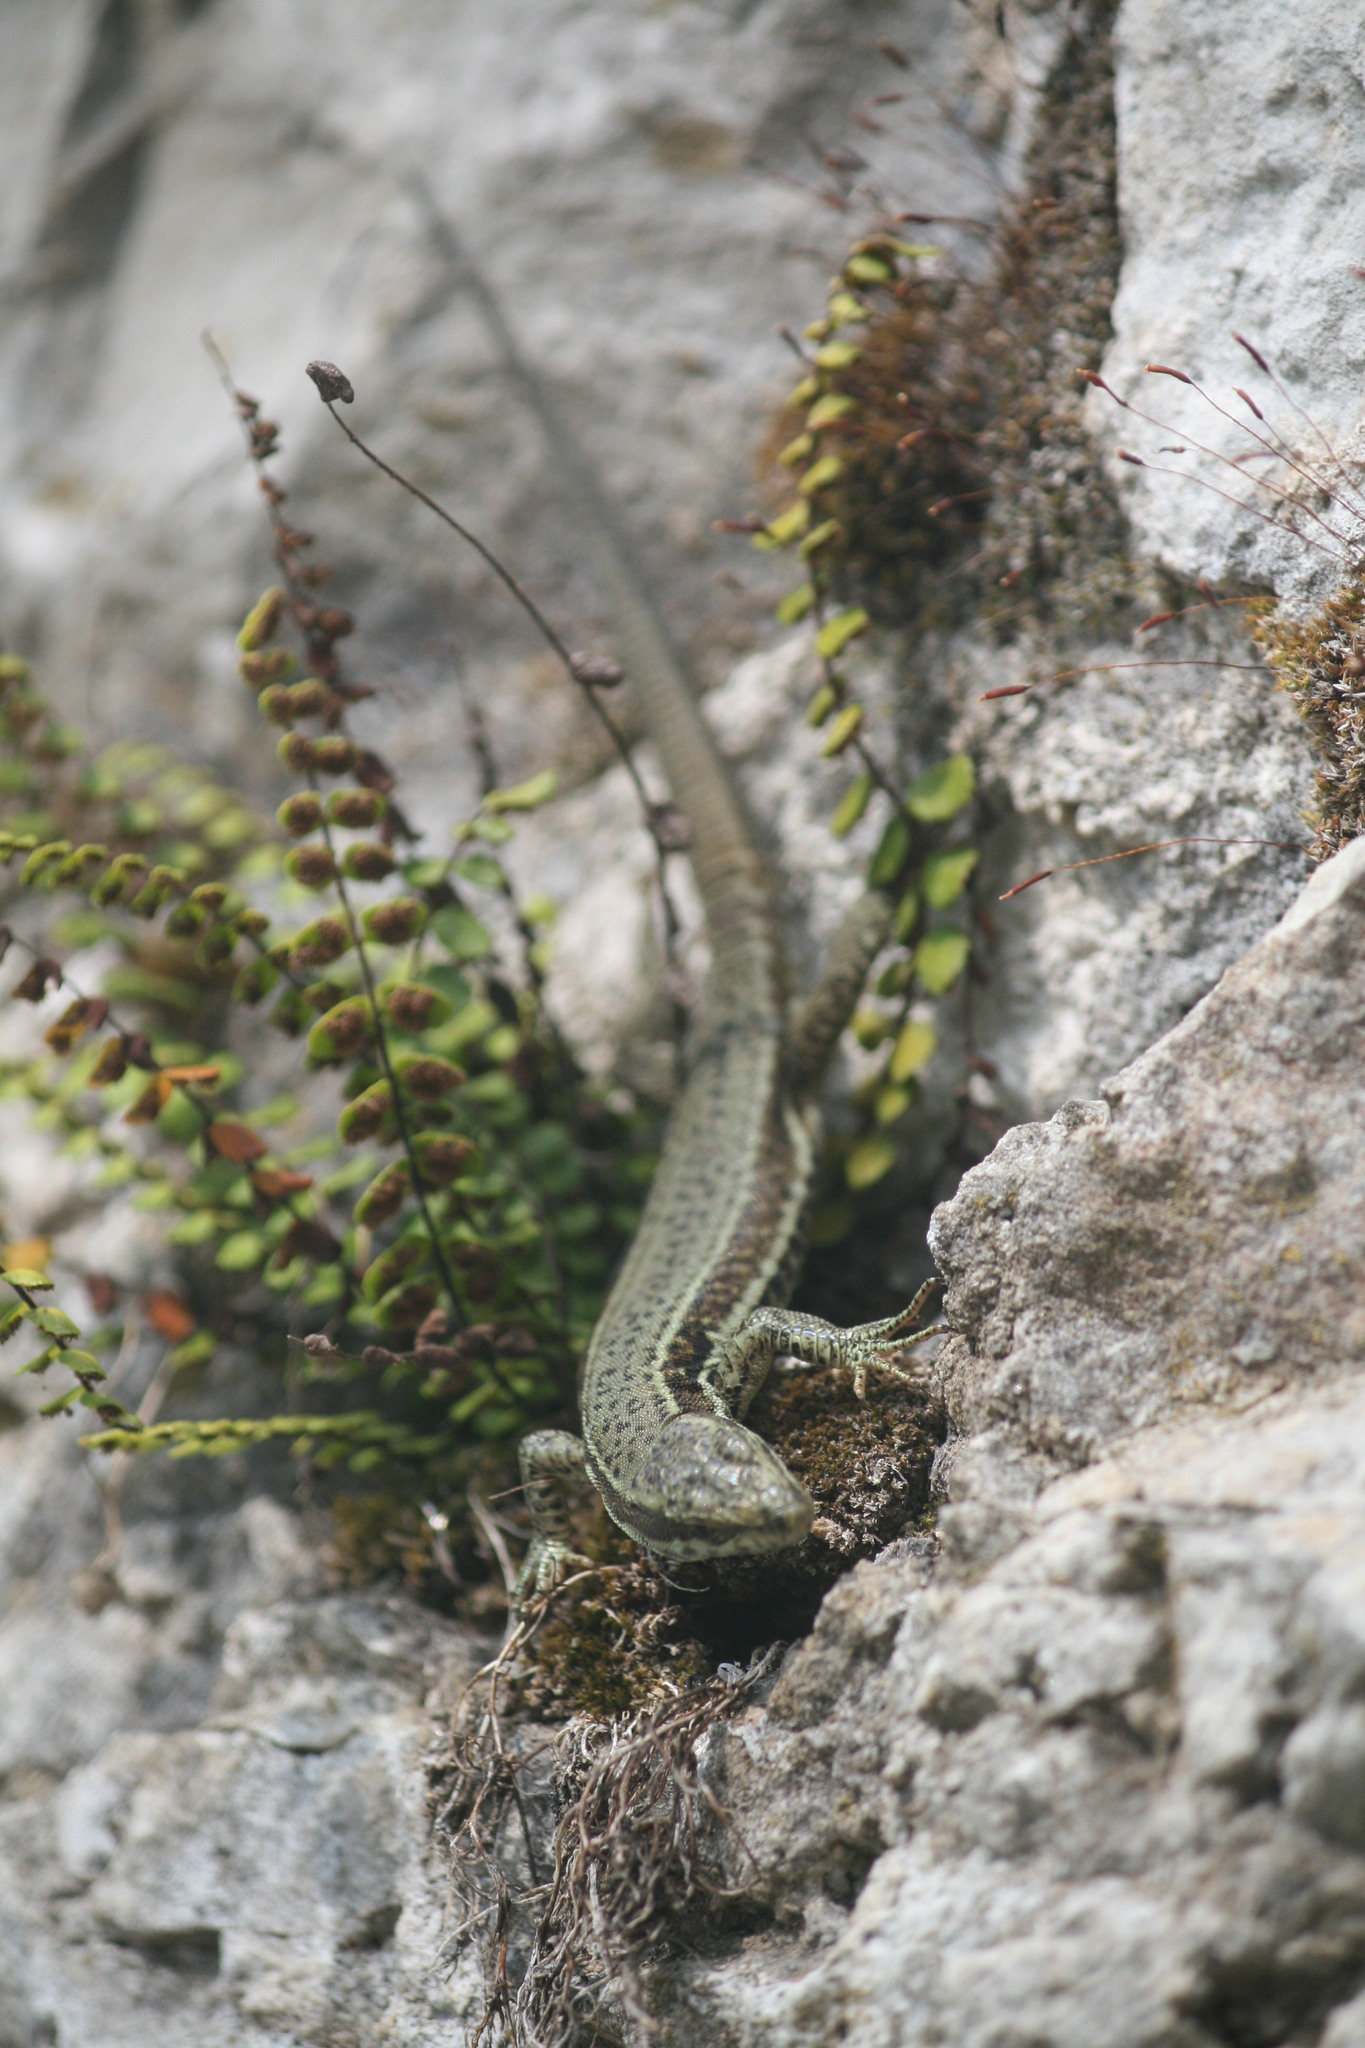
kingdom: Animalia
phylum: Chordata
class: Squamata
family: Lacertidae
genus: Podarcis
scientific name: Podarcis muralis
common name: Common wall lizard
